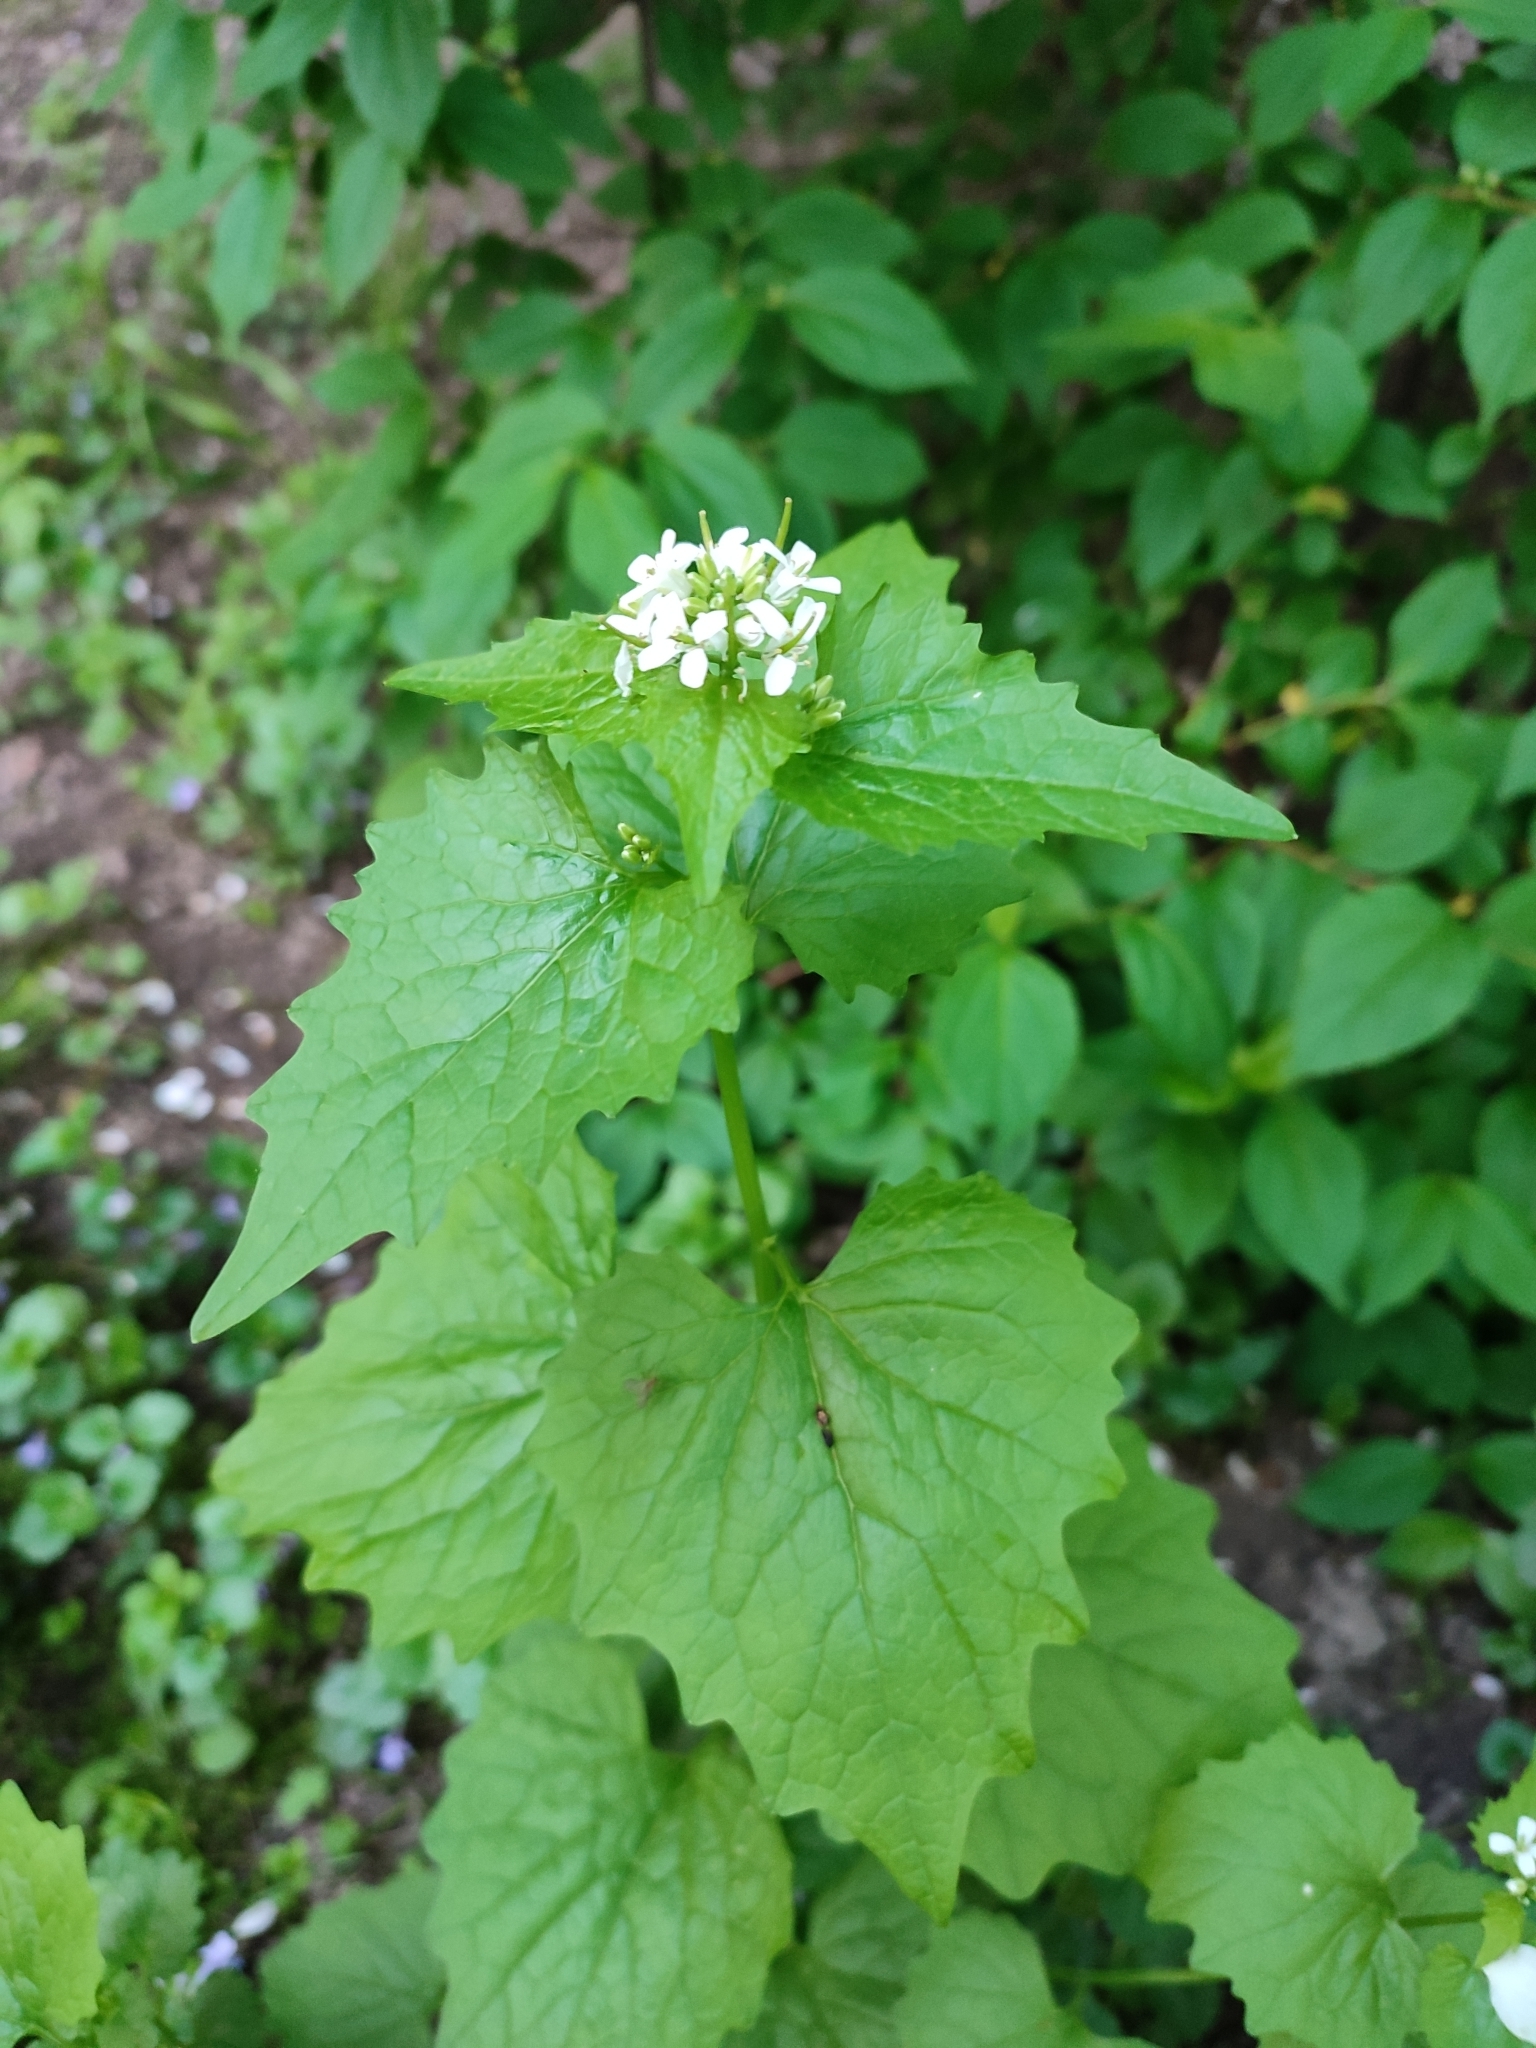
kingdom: Plantae
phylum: Tracheophyta
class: Magnoliopsida
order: Brassicales
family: Brassicaceae
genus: Alliaria
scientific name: Alliaria petiolata
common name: Garlic mustard
